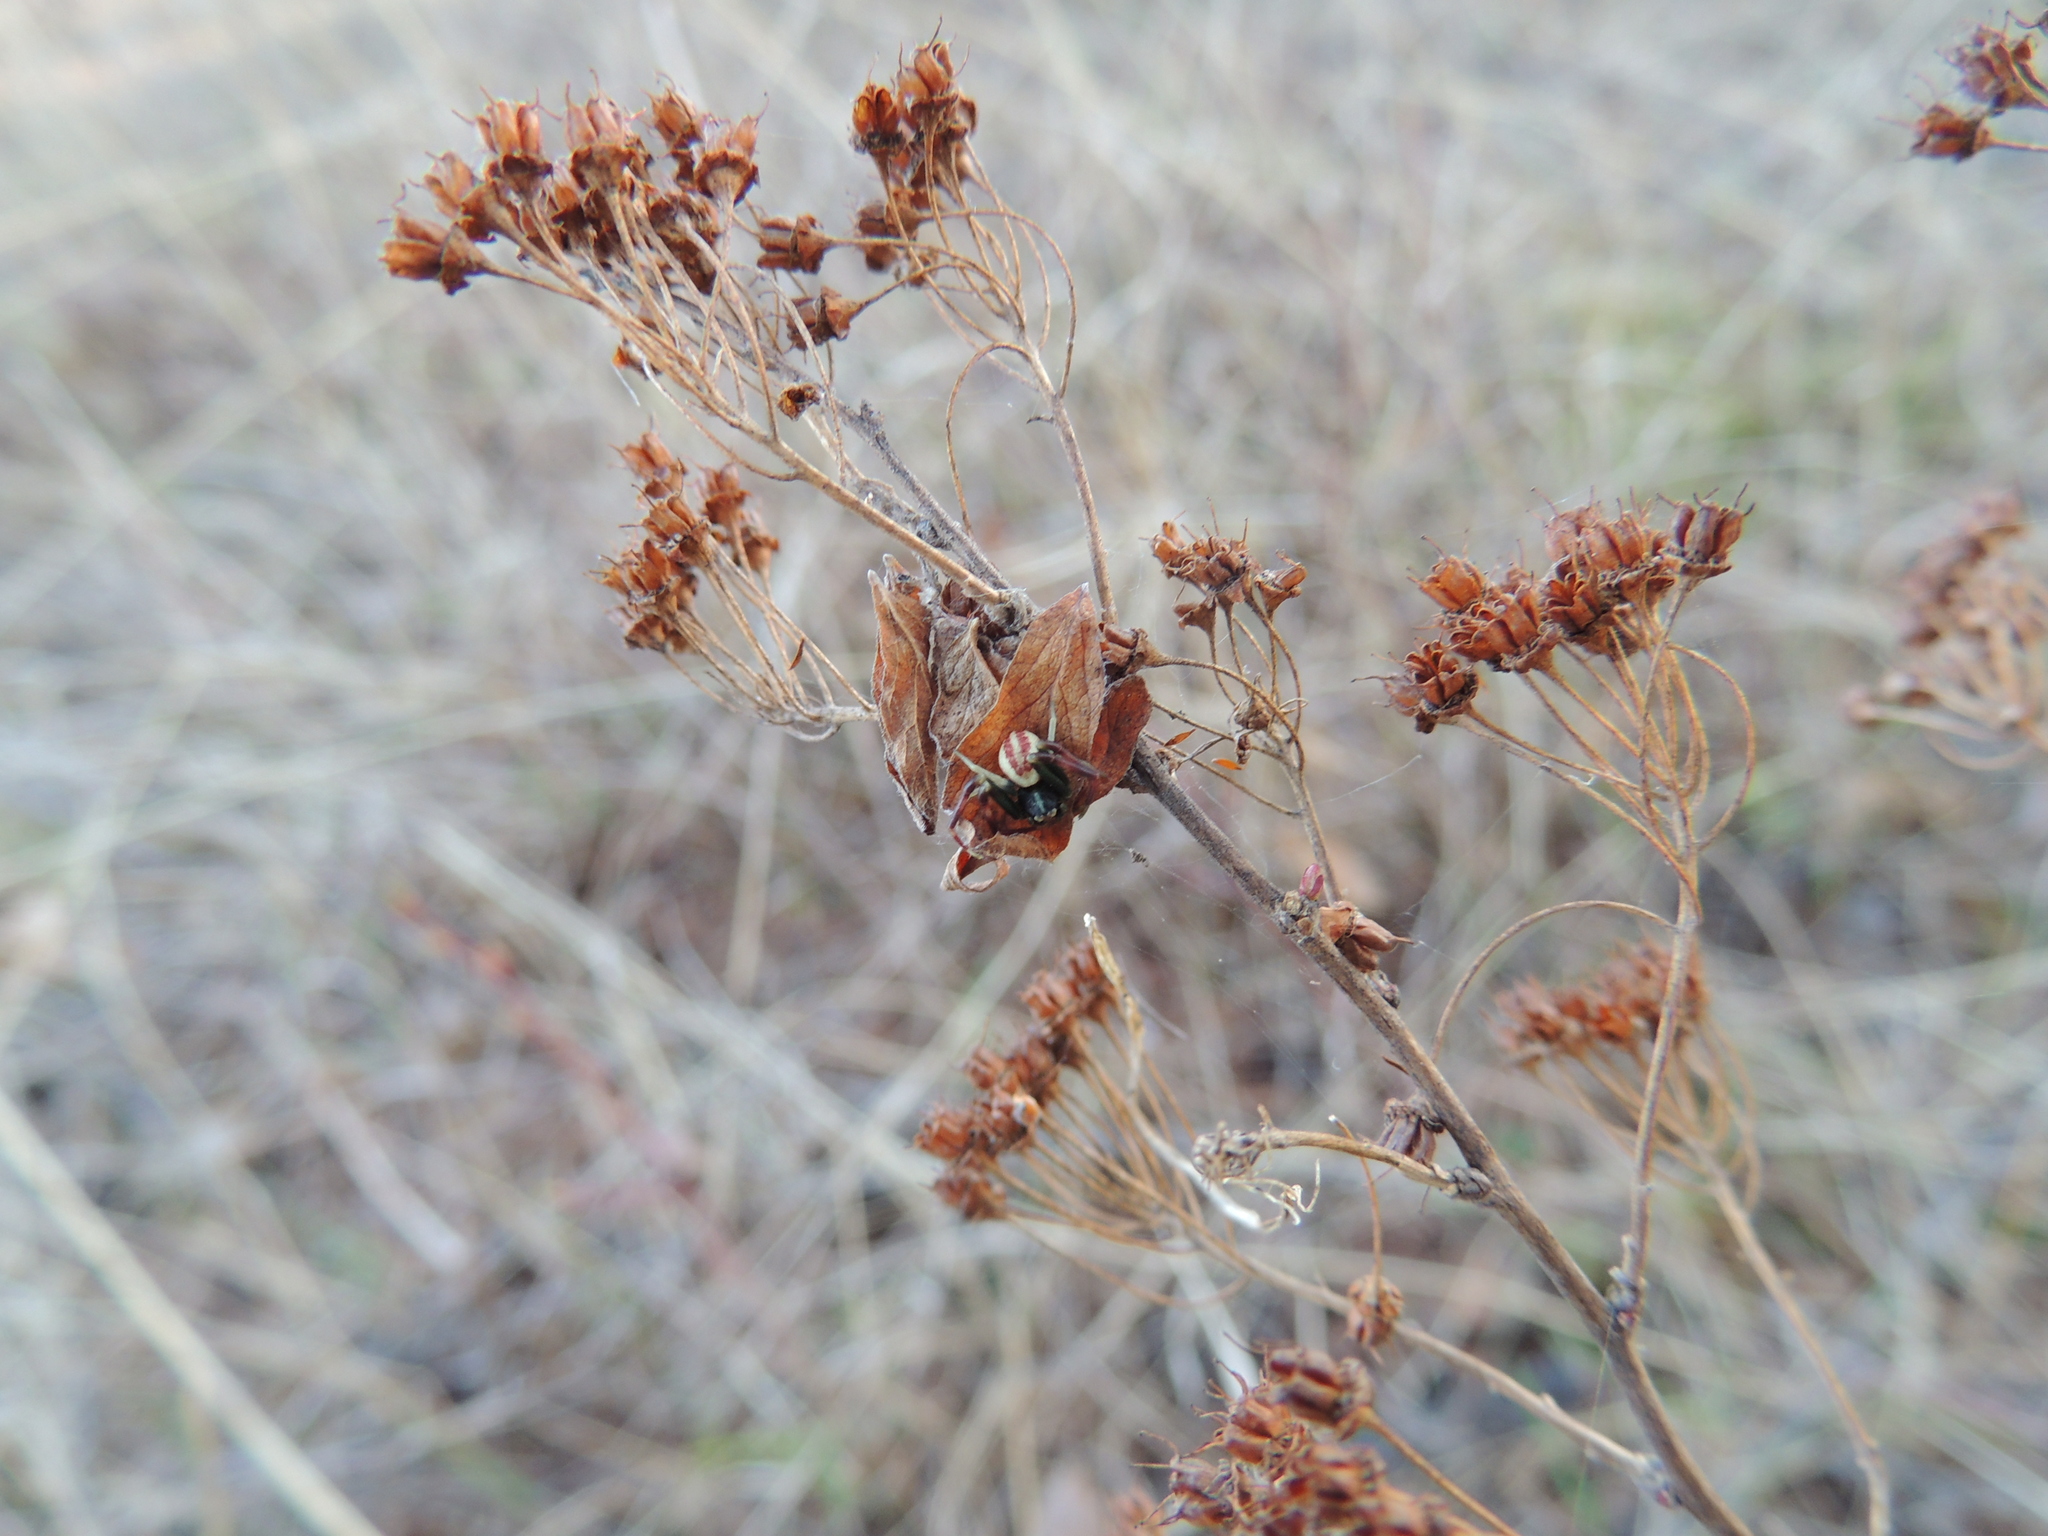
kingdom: Animalia
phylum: Arthropoda
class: Arachnida
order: Araneae
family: Thomisidae
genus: Misumena
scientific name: Misumena vatia
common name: Goldenrod crab spider
